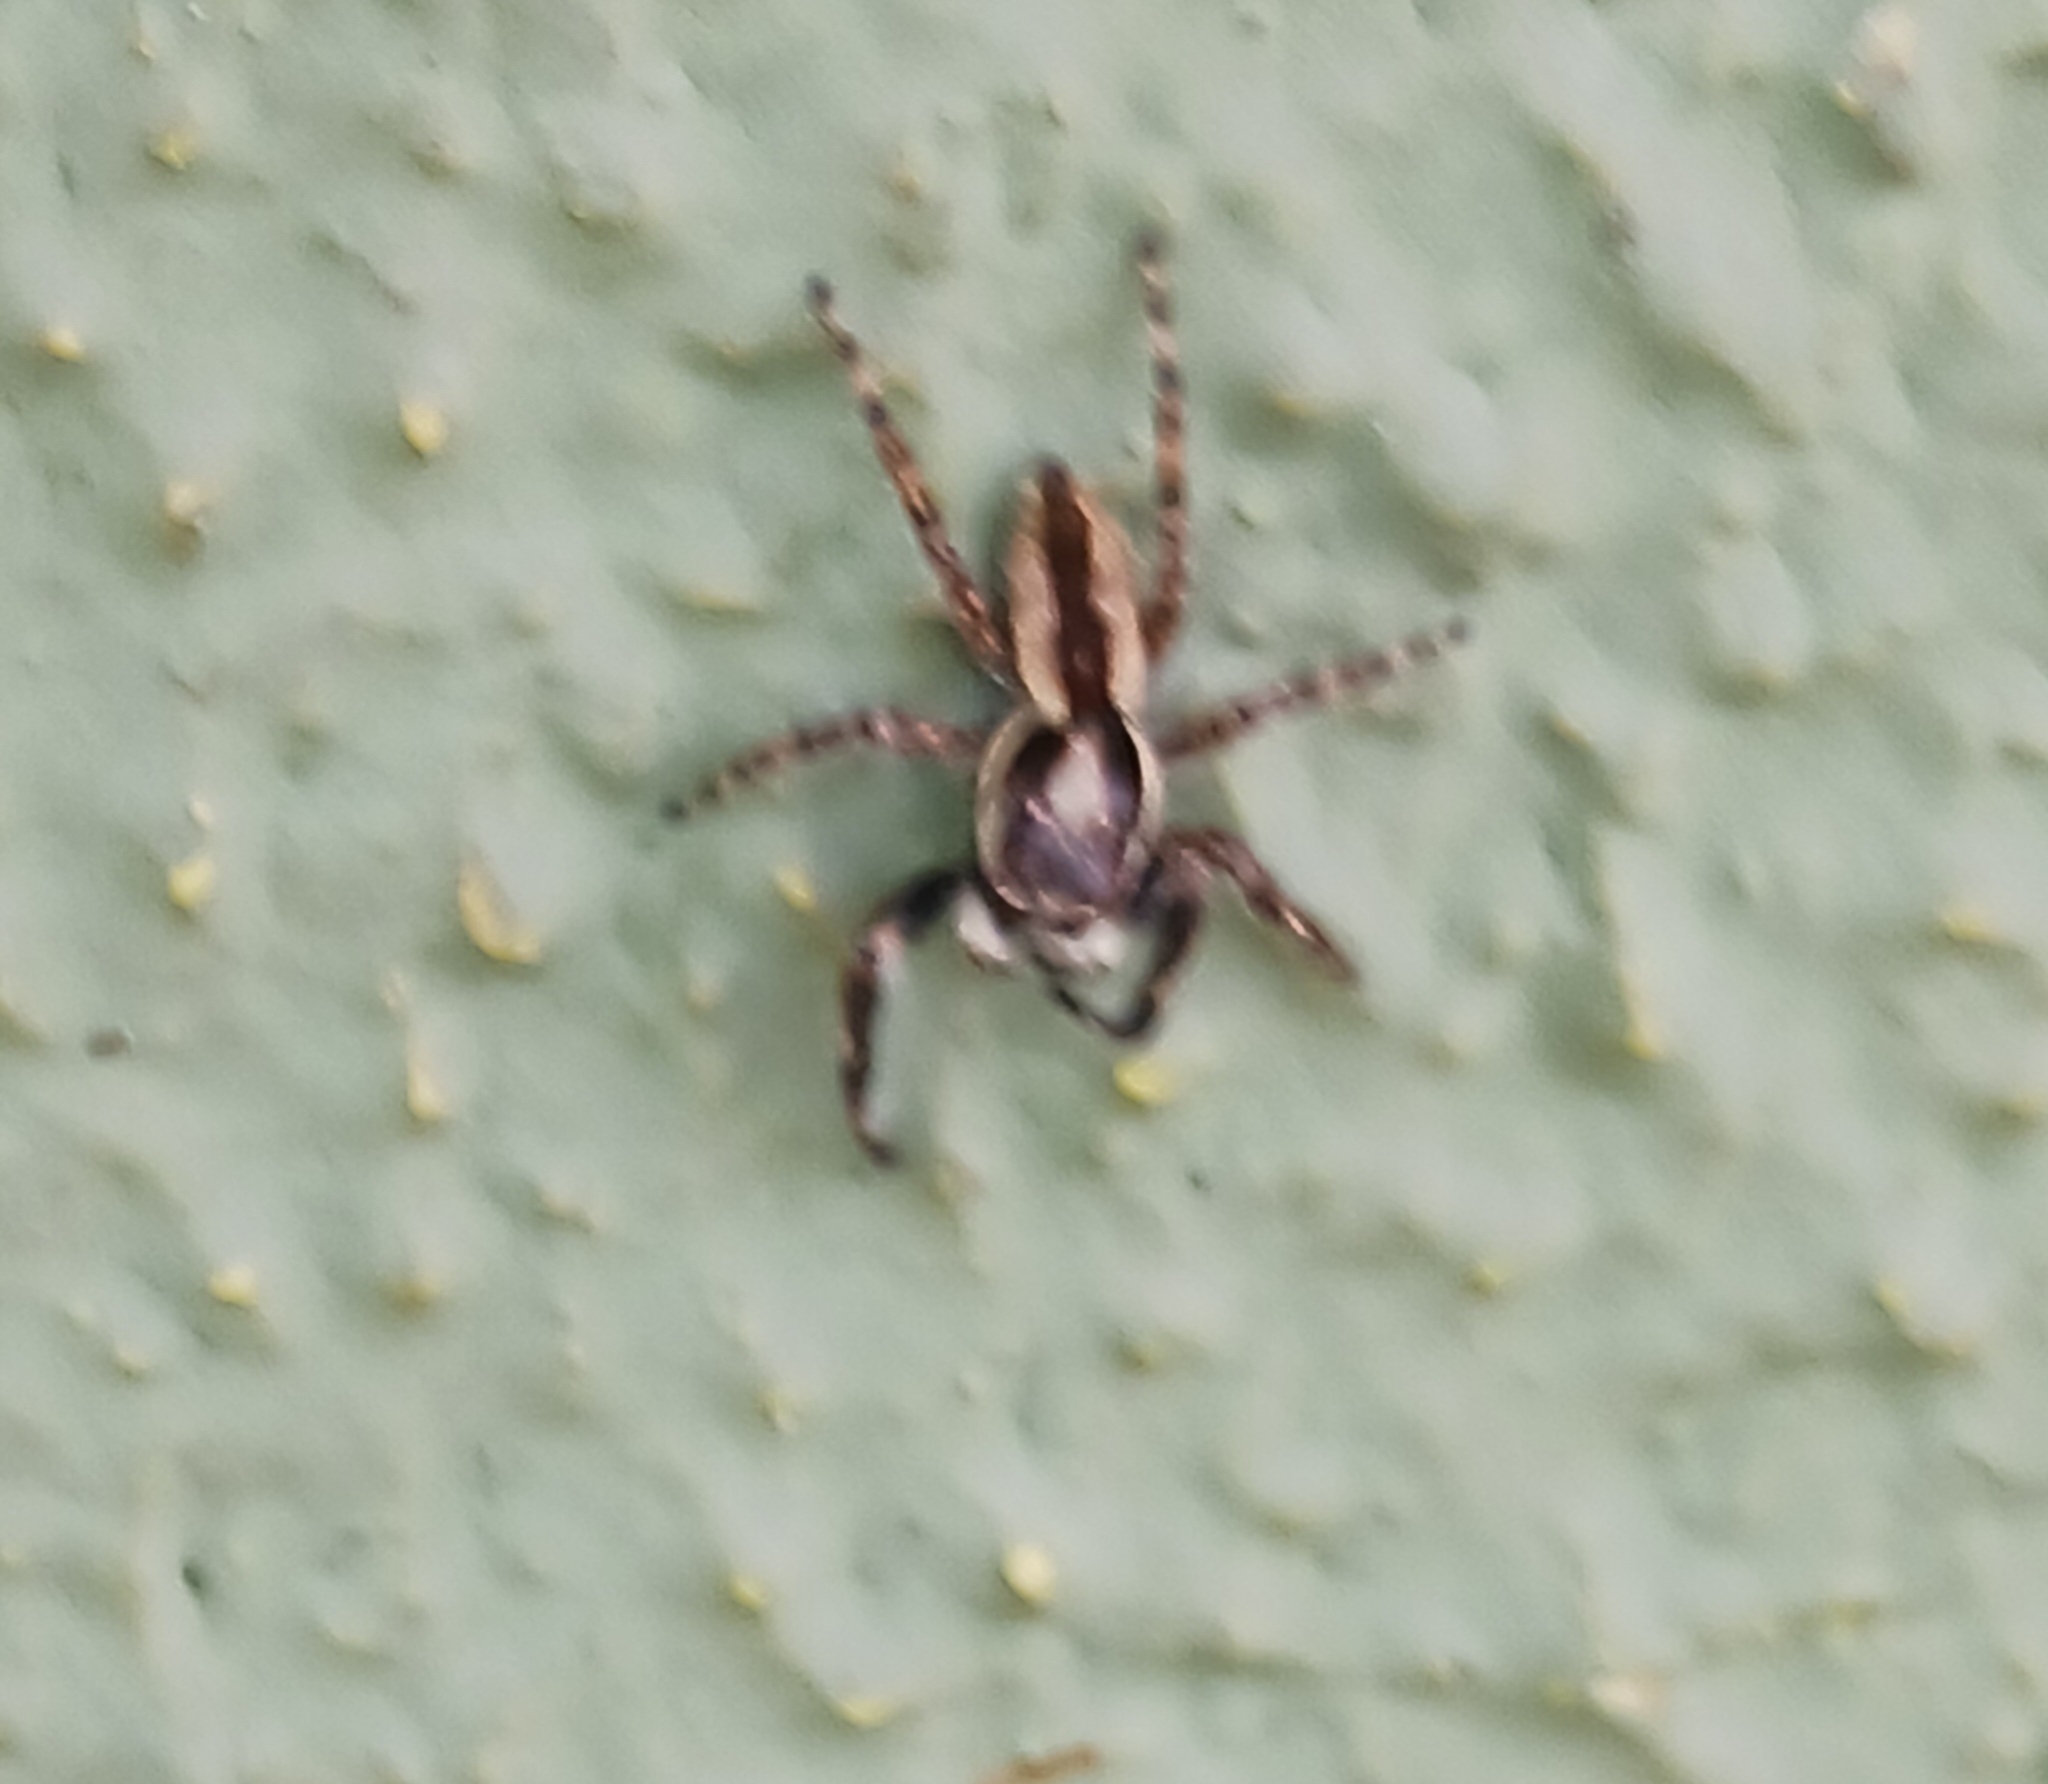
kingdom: Animalia
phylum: Arthropoda
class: Arachnida
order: Araneae
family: Salticidae
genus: Menemerus
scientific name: Menemerus bivittatus
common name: Gray wall jumper
